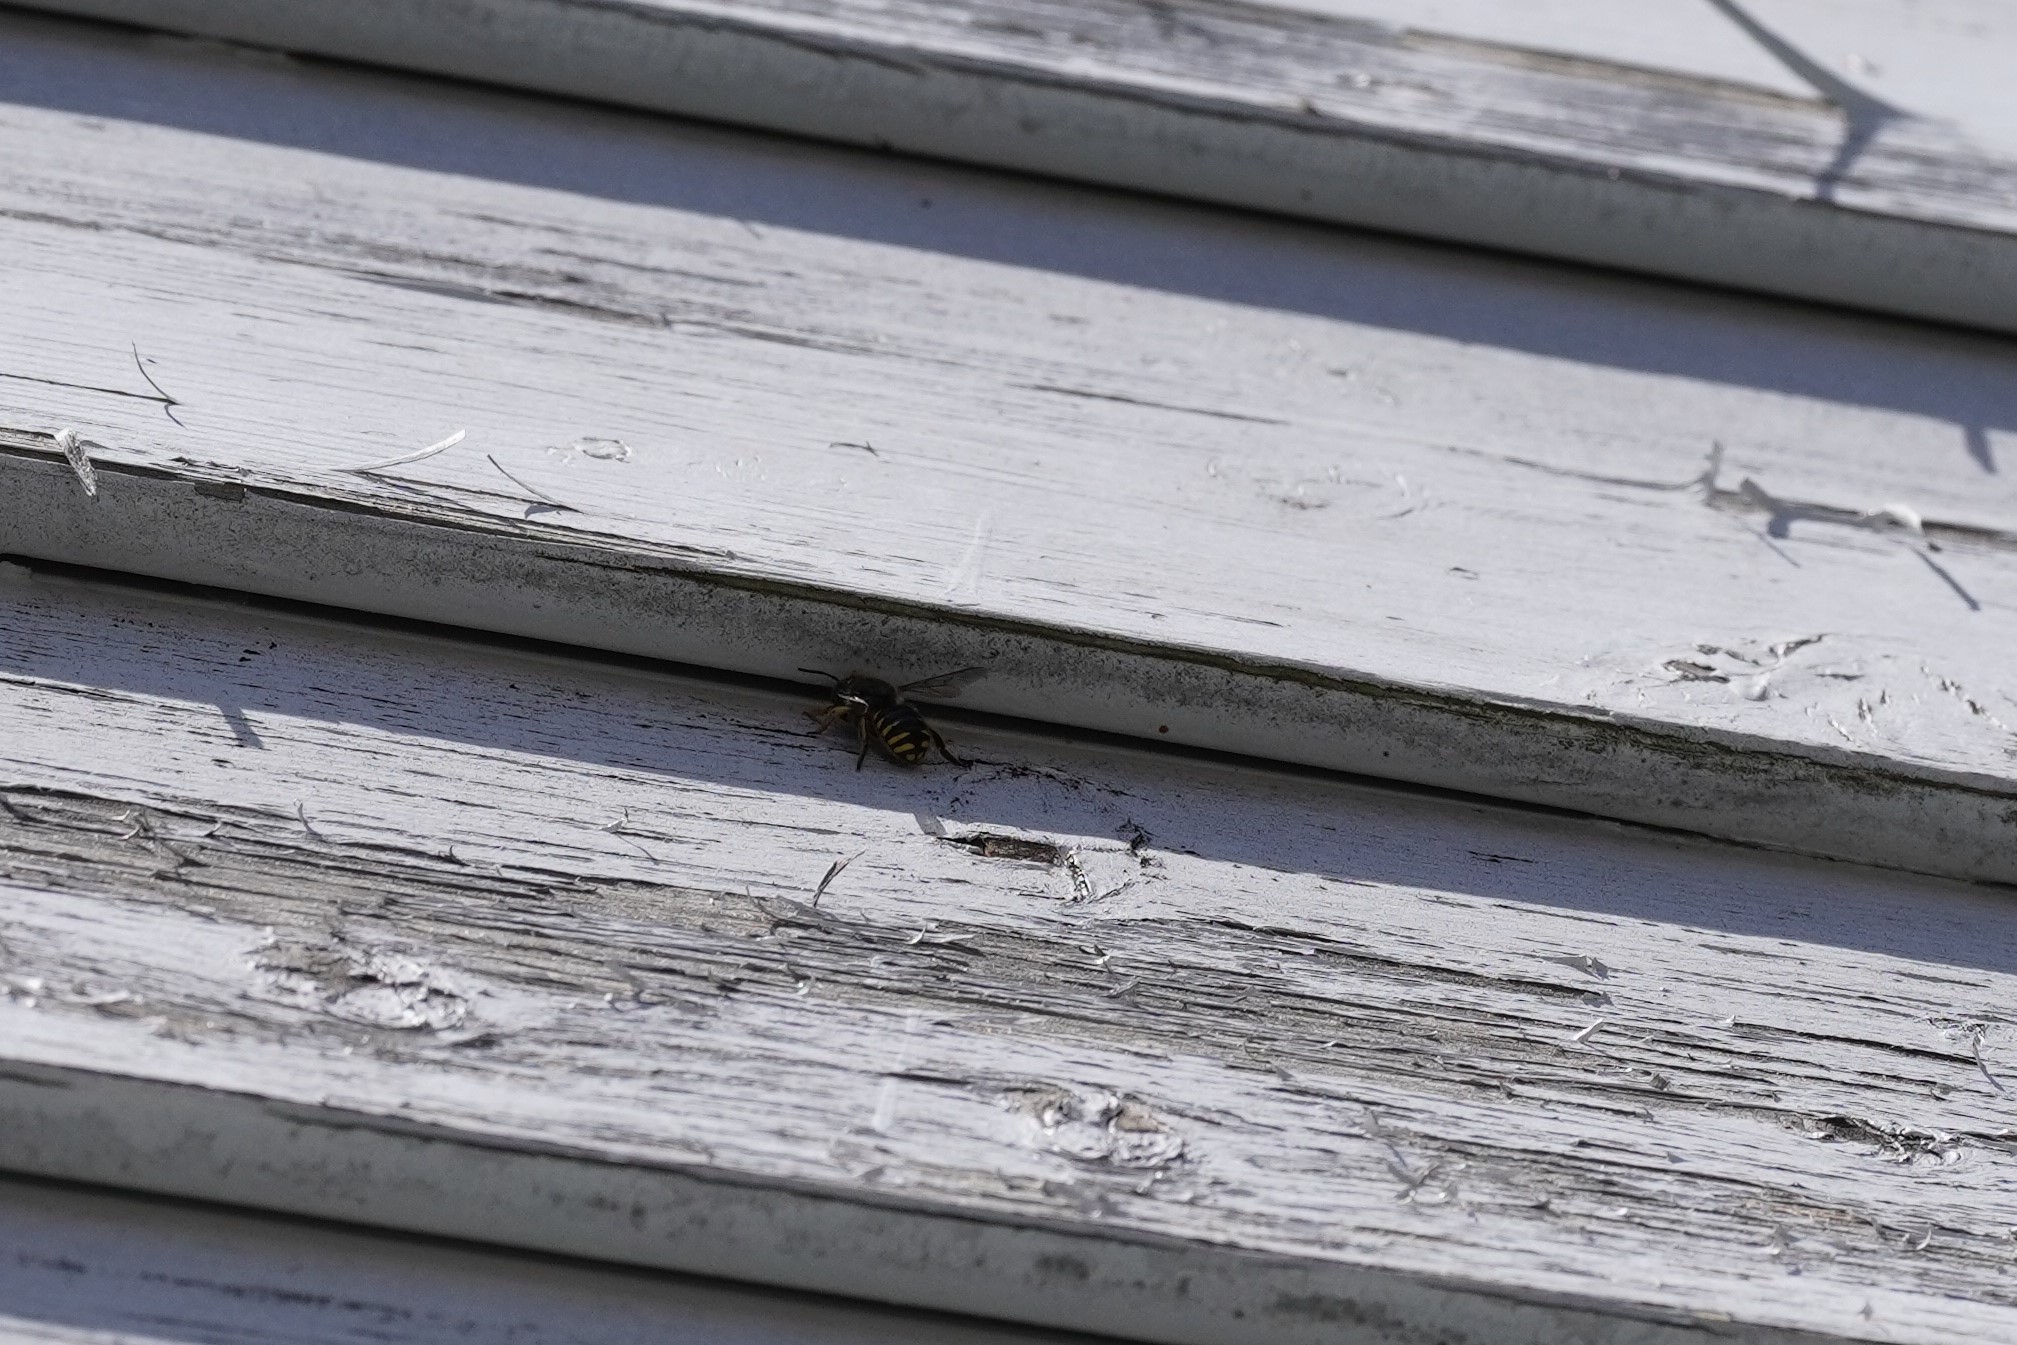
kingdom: Animalia
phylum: Arthropoda
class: Insecta
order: Hymenoptera
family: Megachilidae
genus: Anthidium
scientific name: Anthidium manicatum
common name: Wool carder bee
